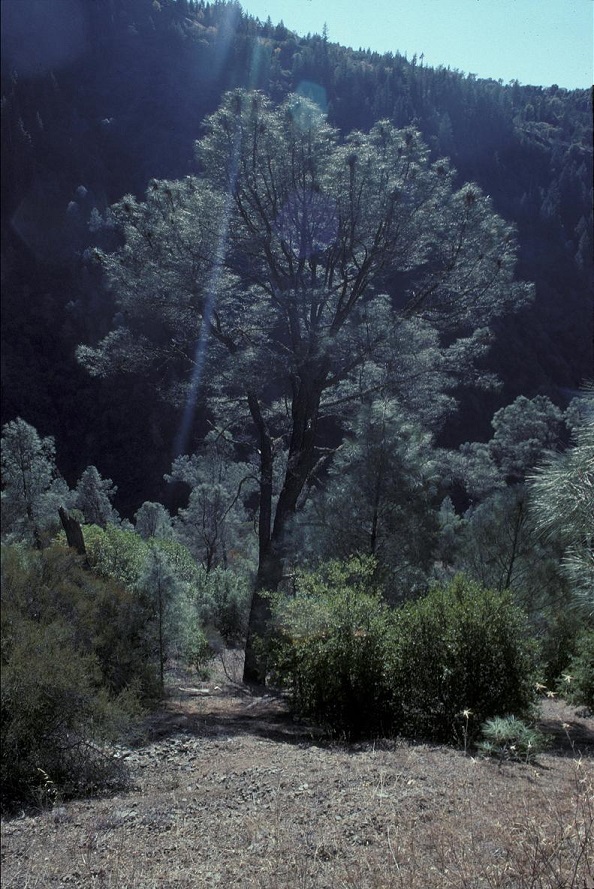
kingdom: Plantae
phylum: Tracheophyta
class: Pinopsida
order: Pinales
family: Pinaceae
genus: Pinus
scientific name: Pinus sabiniana
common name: Bull pine
